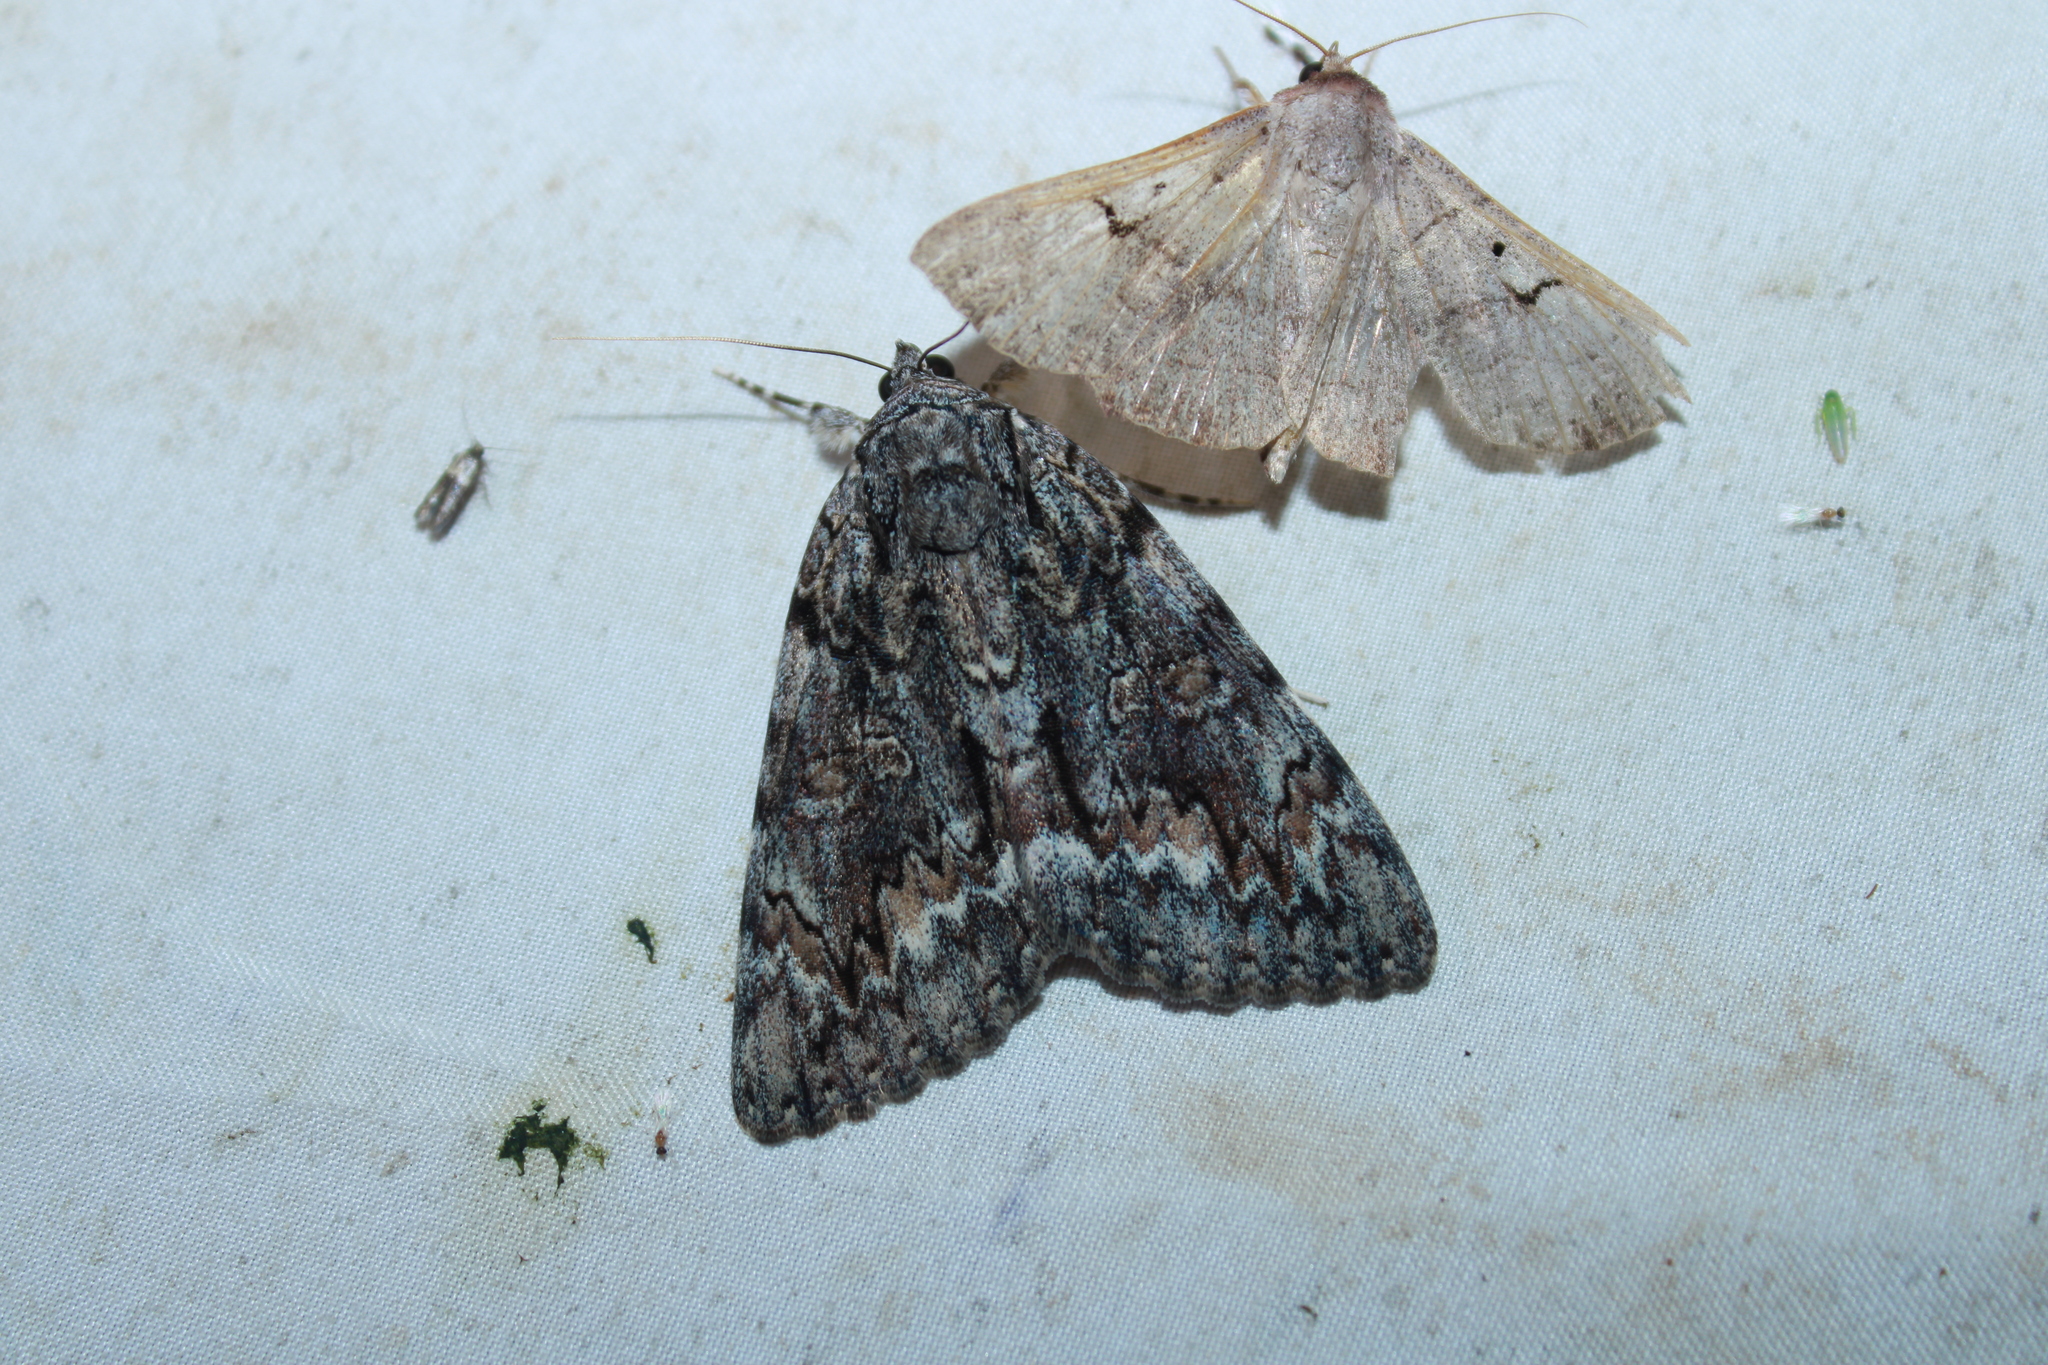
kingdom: Animalia
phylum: Arthropoda
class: Insecta
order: Lepidoptera
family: Erebidae
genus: Catocala
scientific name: Catocala palaeogama
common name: Oldwife underwing
